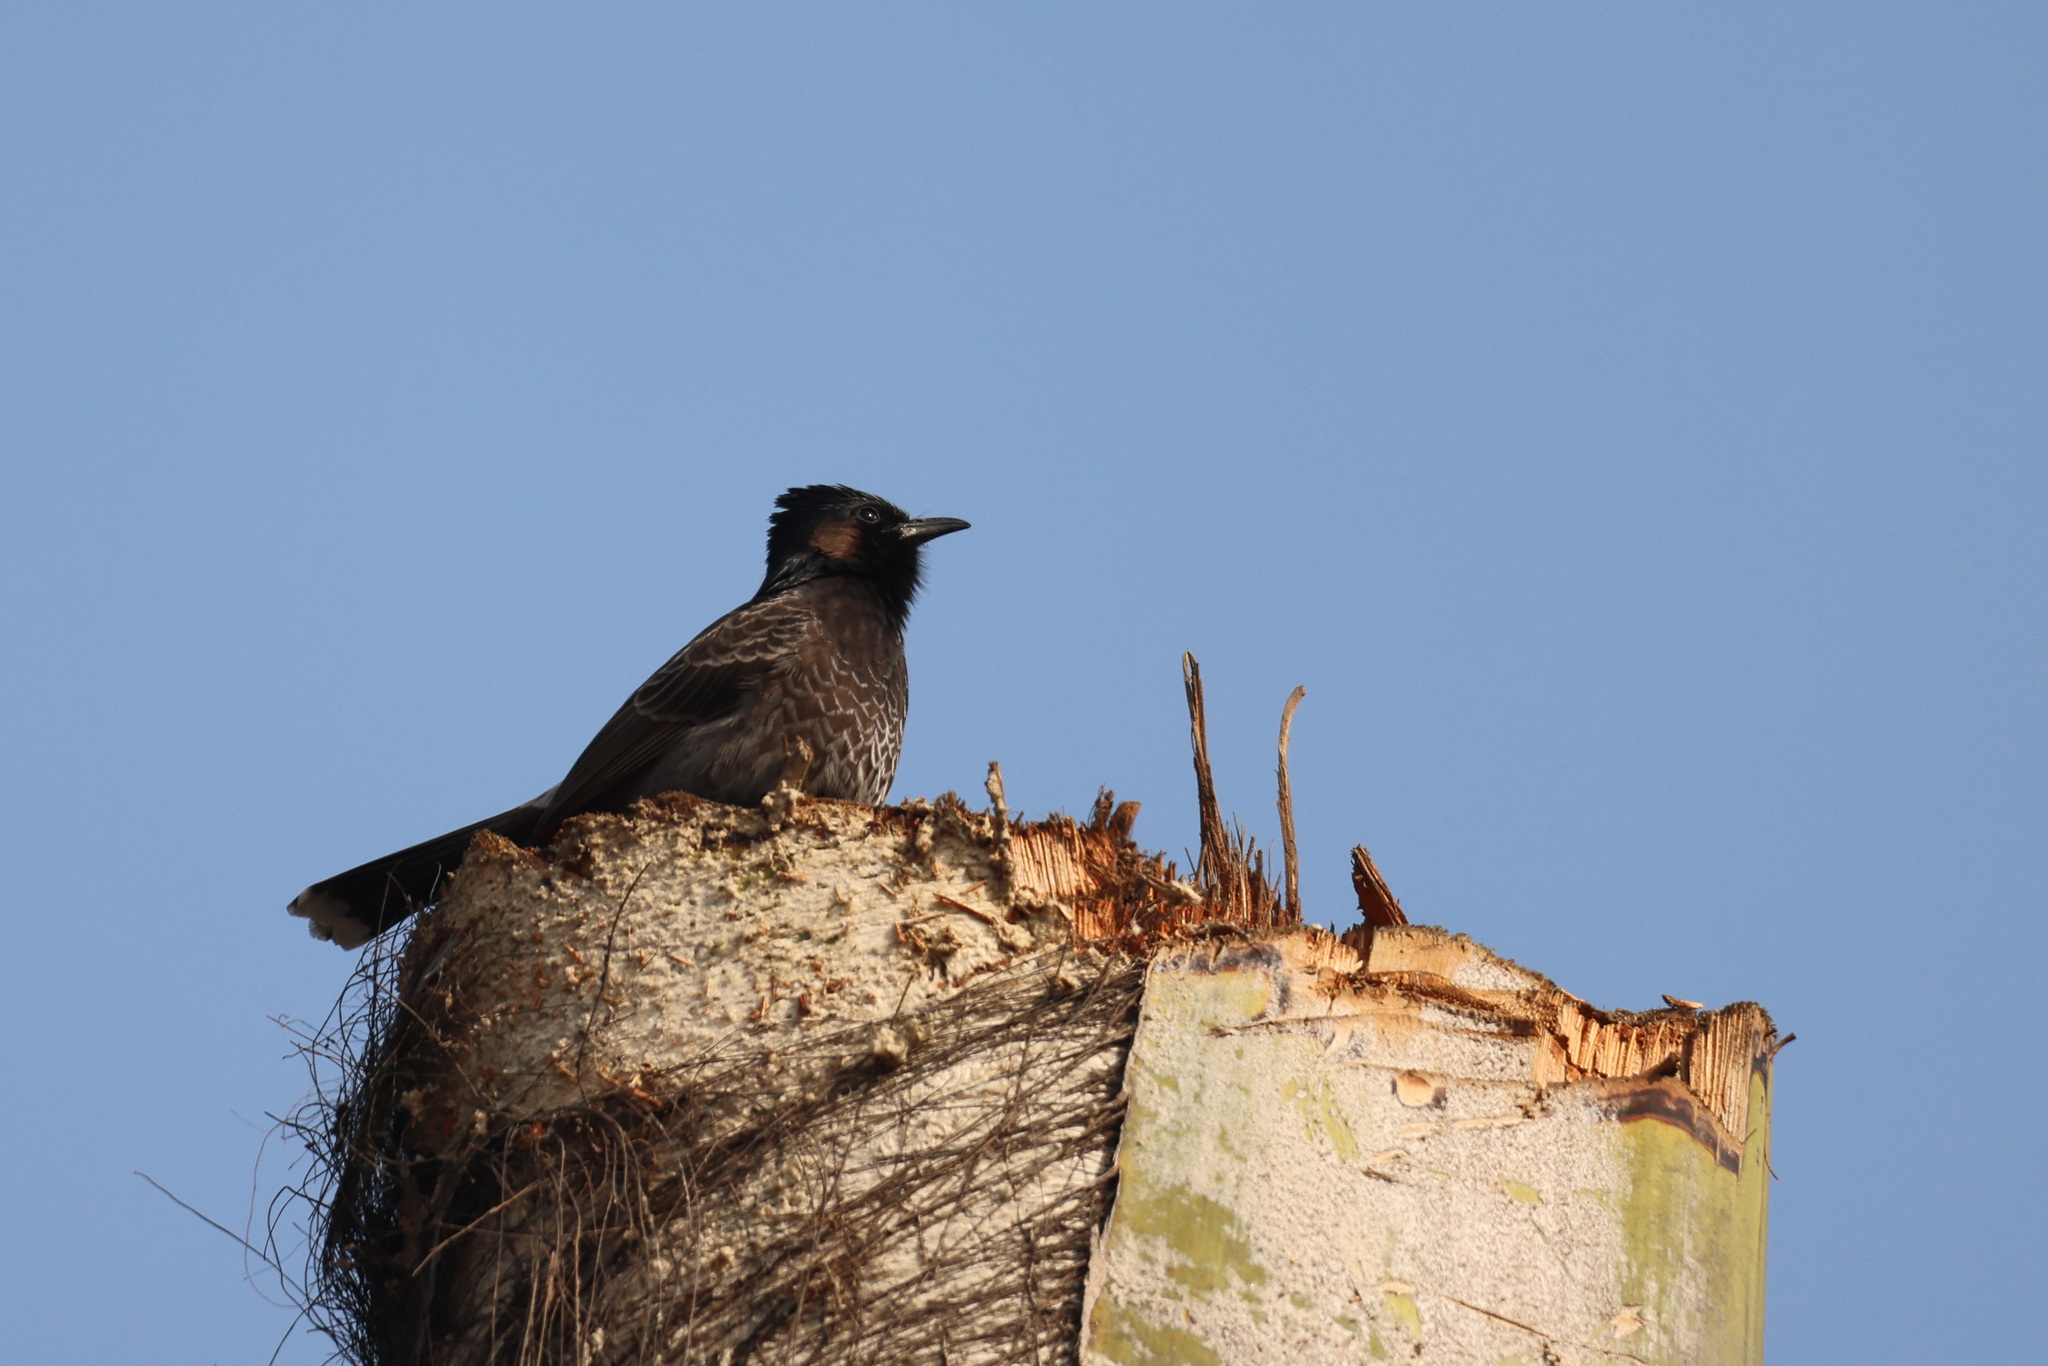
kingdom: Animalia
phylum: Chordata
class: Aves
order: Passeriformes
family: Pycnonotidae
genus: Pycnonotus
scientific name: Pycnonotus cafer
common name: Red-vented bulbul
